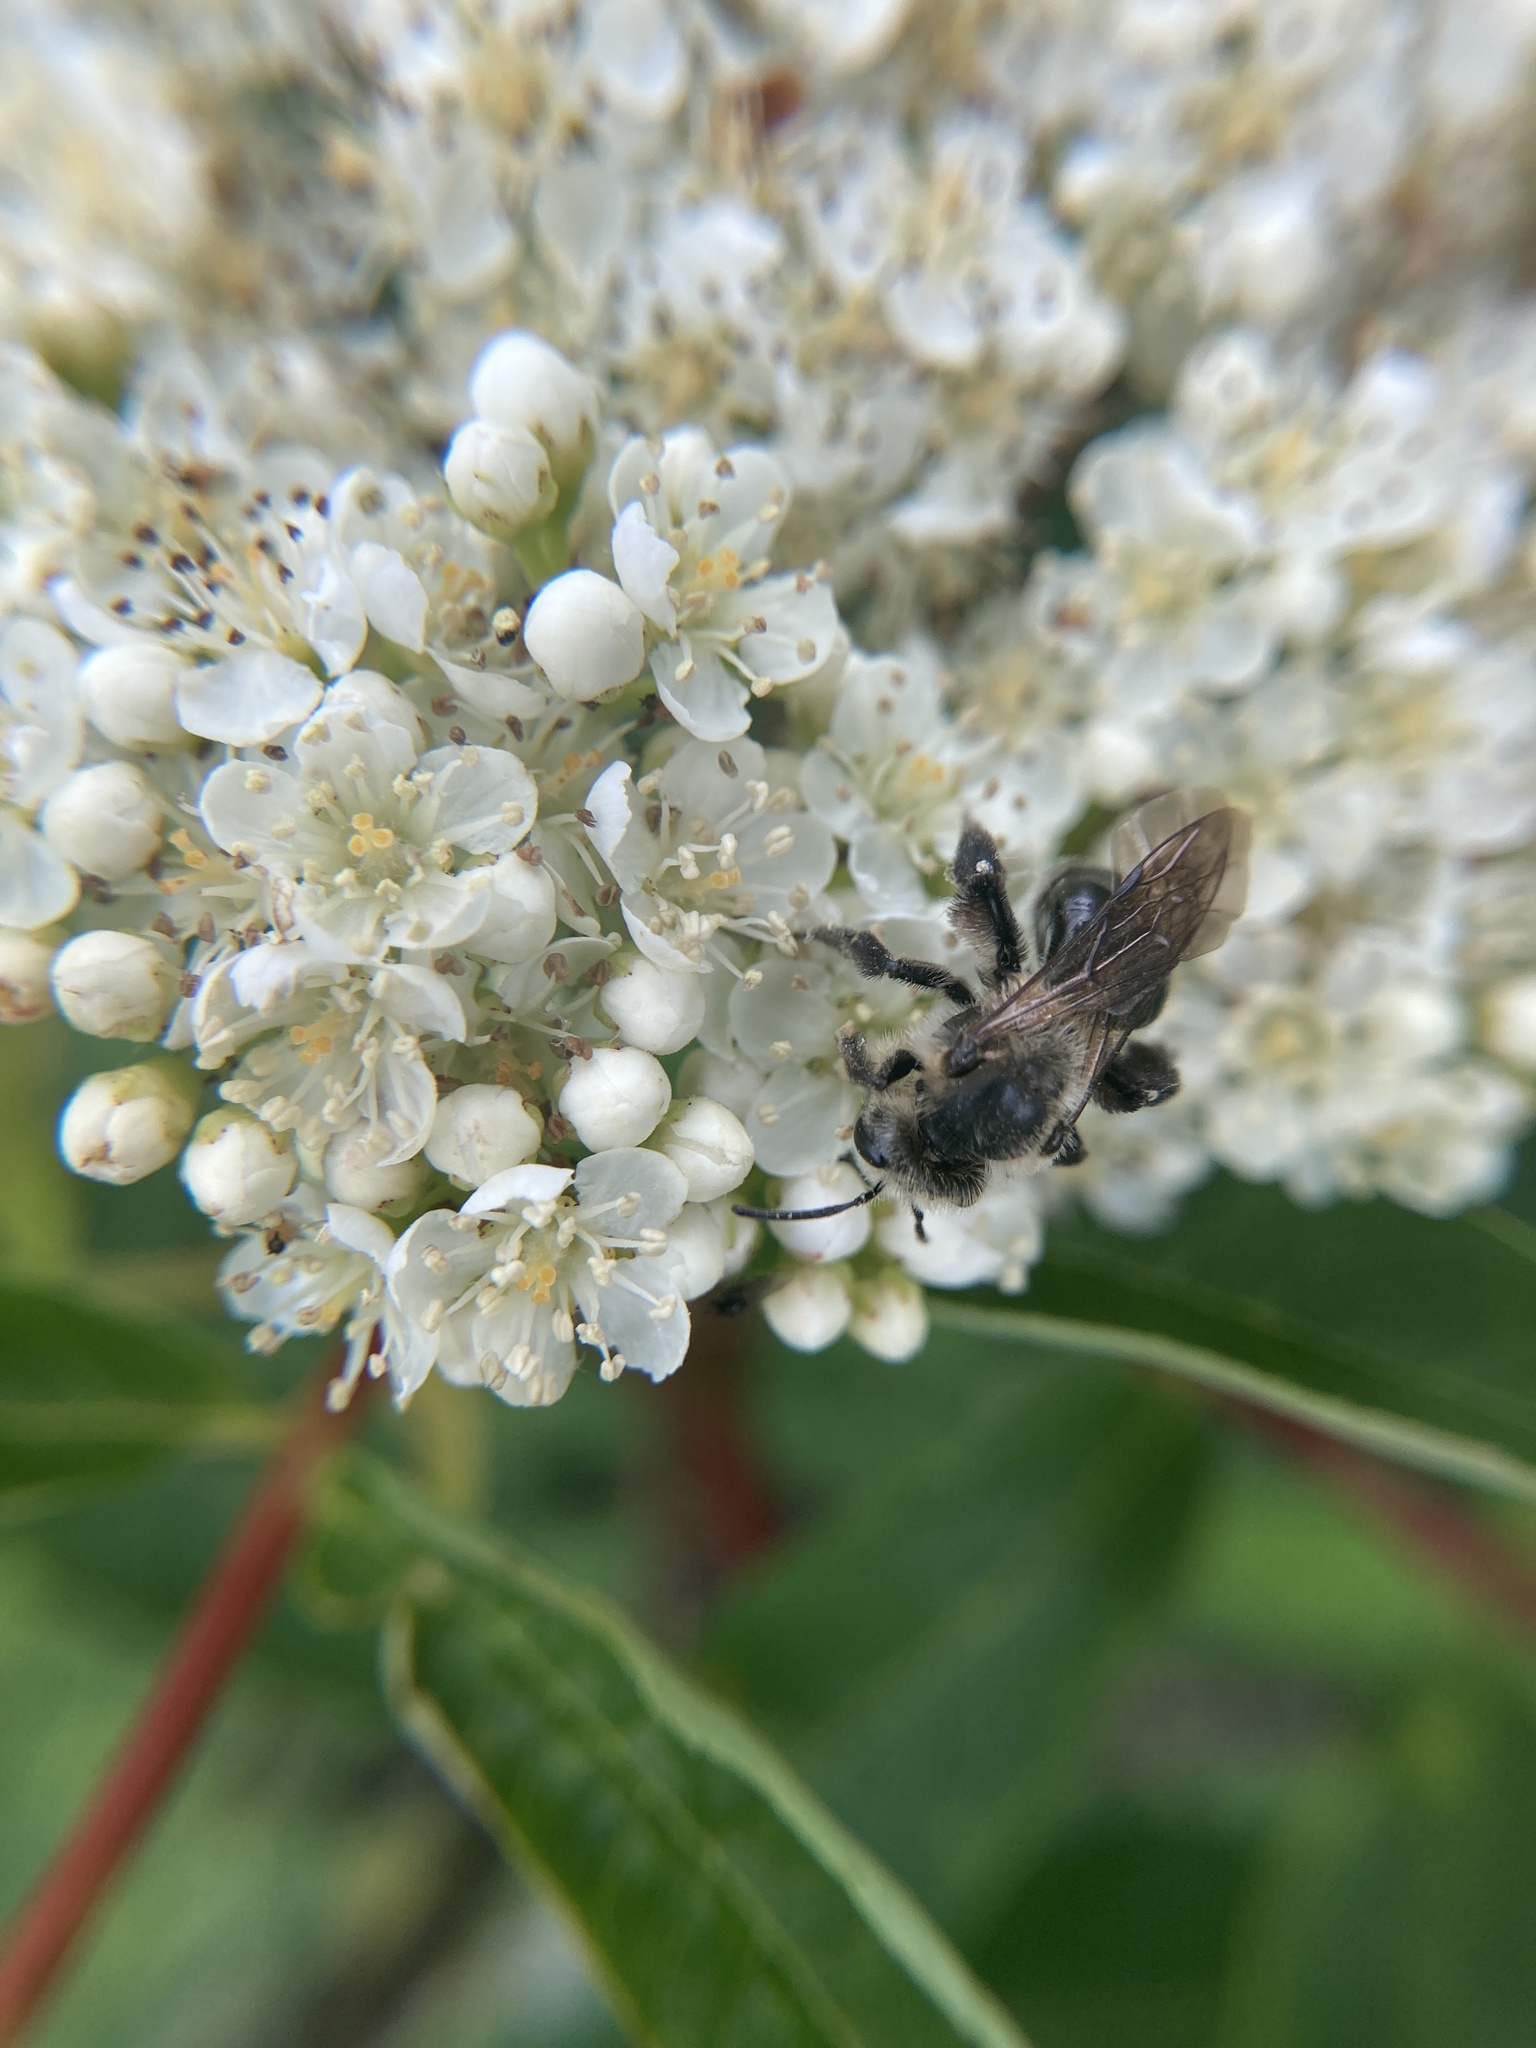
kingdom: Animalia
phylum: Arthropoda
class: Insecta
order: Hymenoptera
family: Andrenidae
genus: Andrena
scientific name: Andrena vicina
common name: Neighborly mining bee
